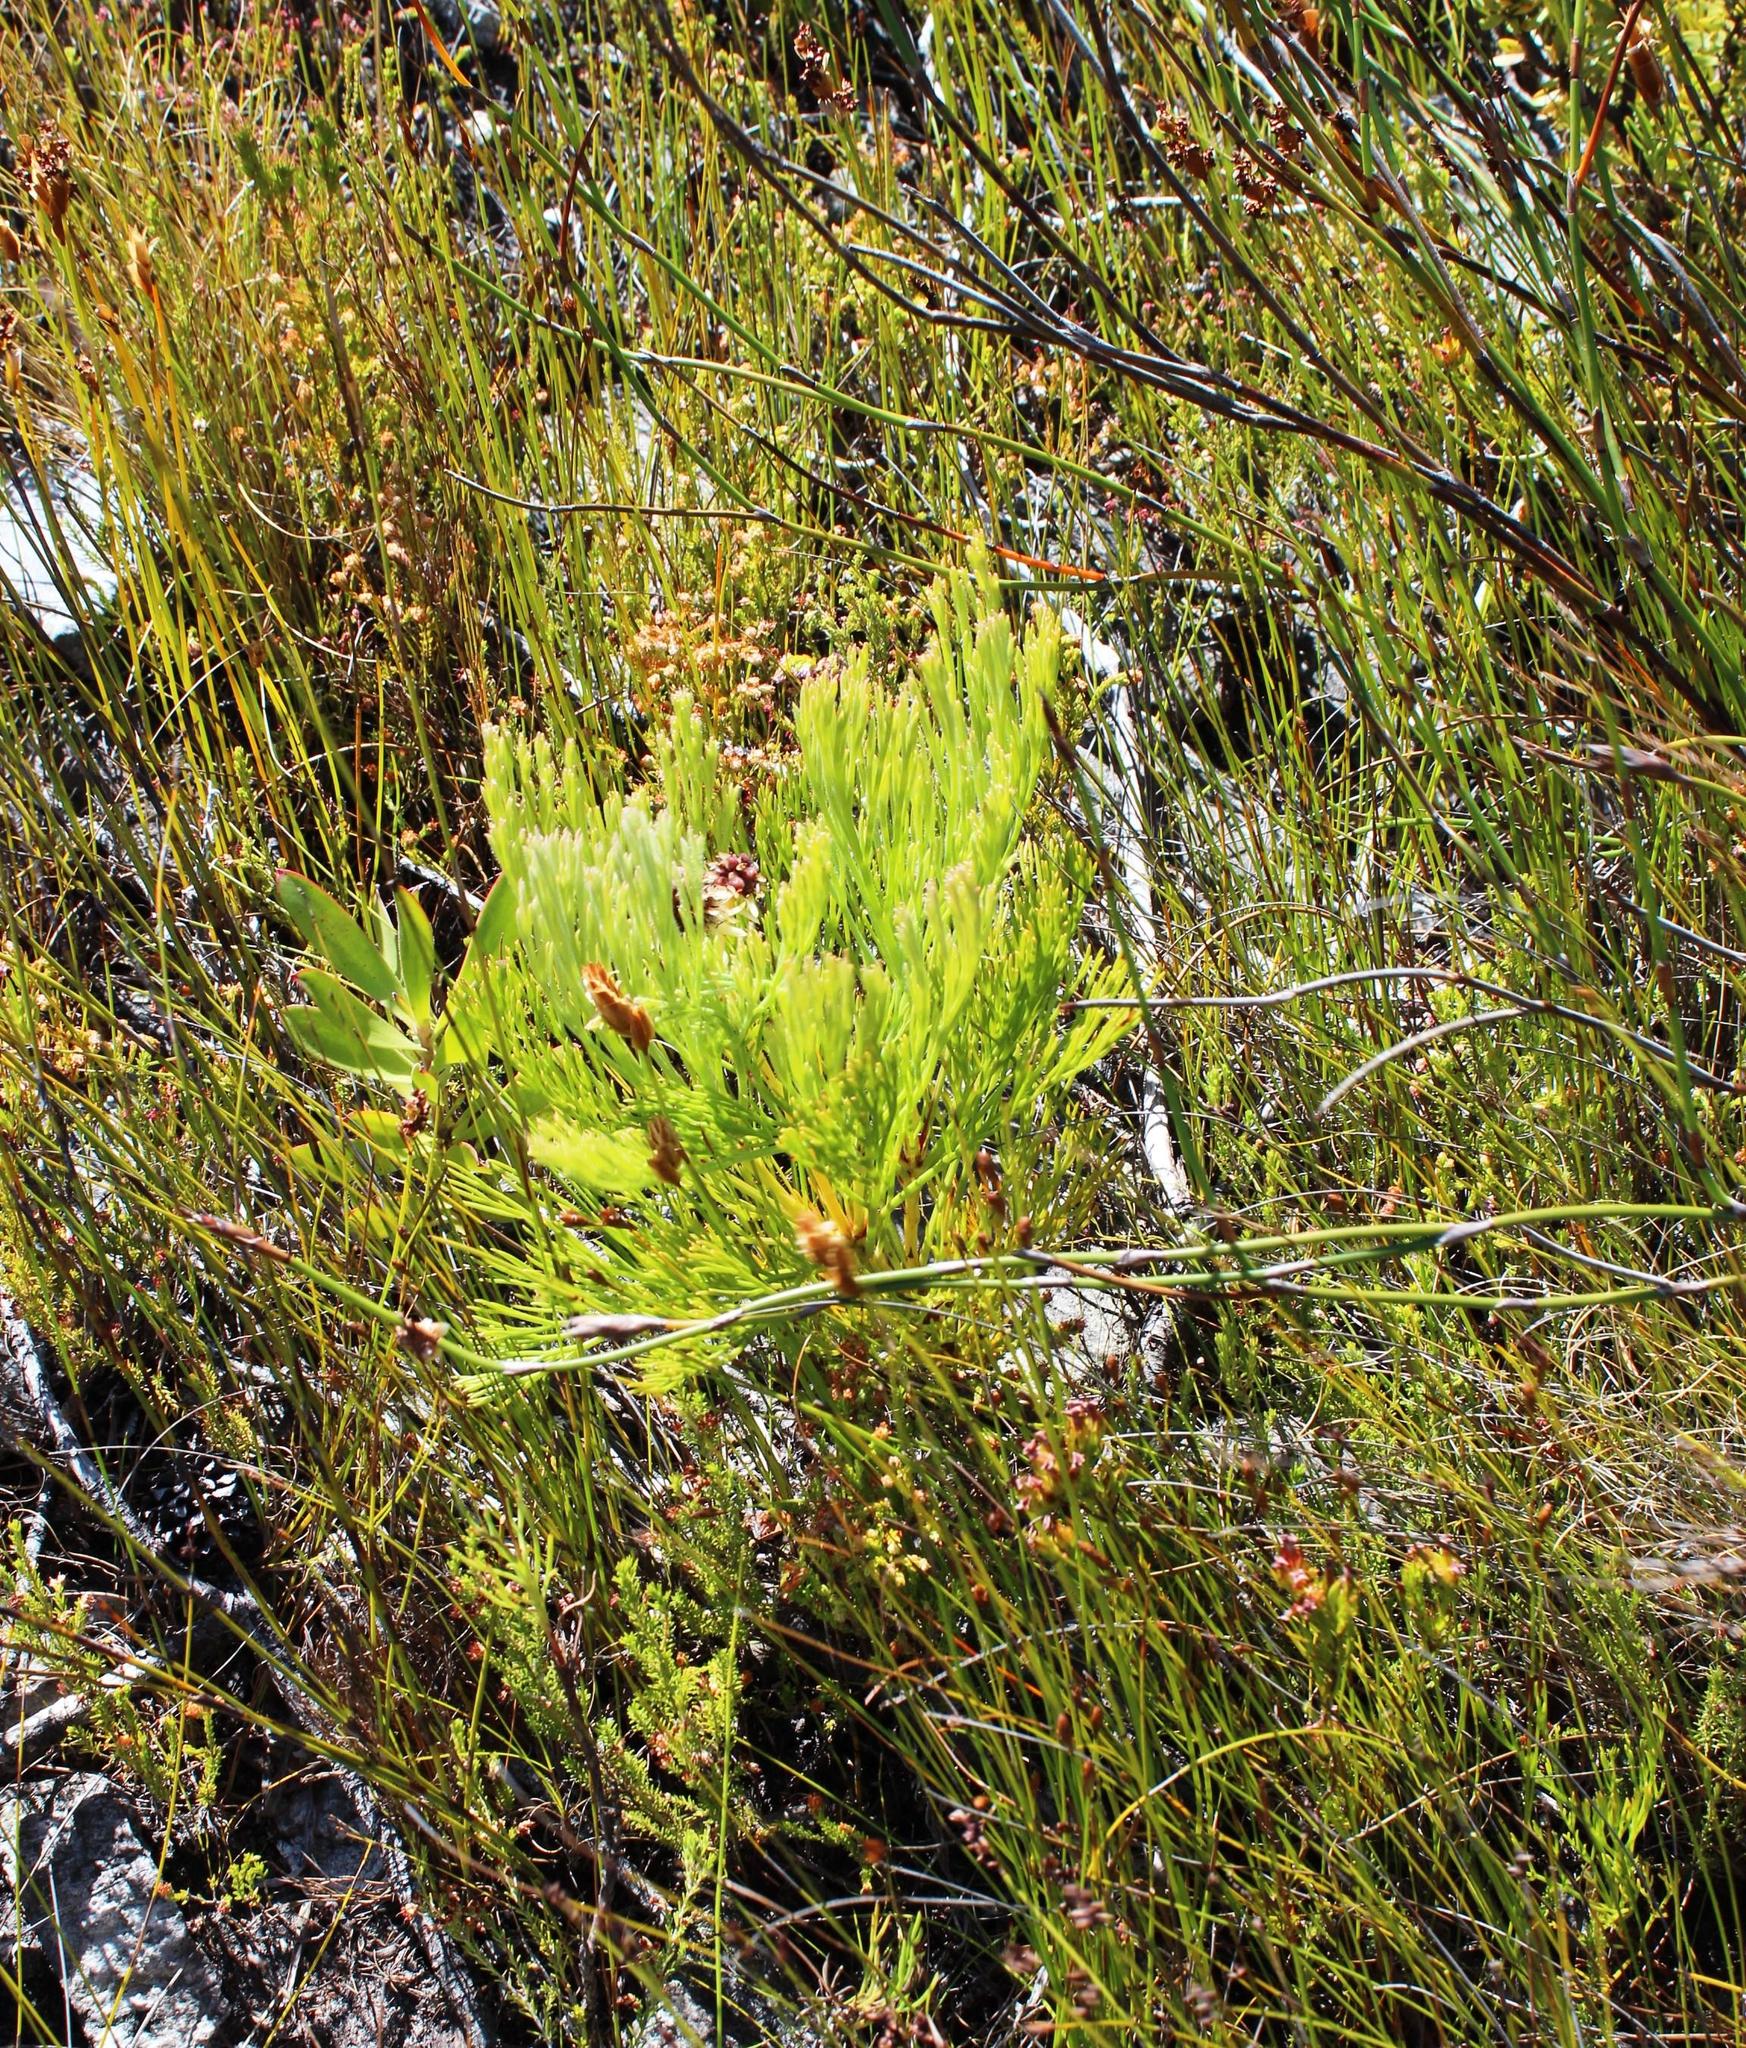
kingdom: Plantae
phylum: Tracheophyta
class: Magnoliopsida
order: Proteales
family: Proteaceae
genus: Serruria
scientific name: Serruria elongata
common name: Long-stalk spiderhead
